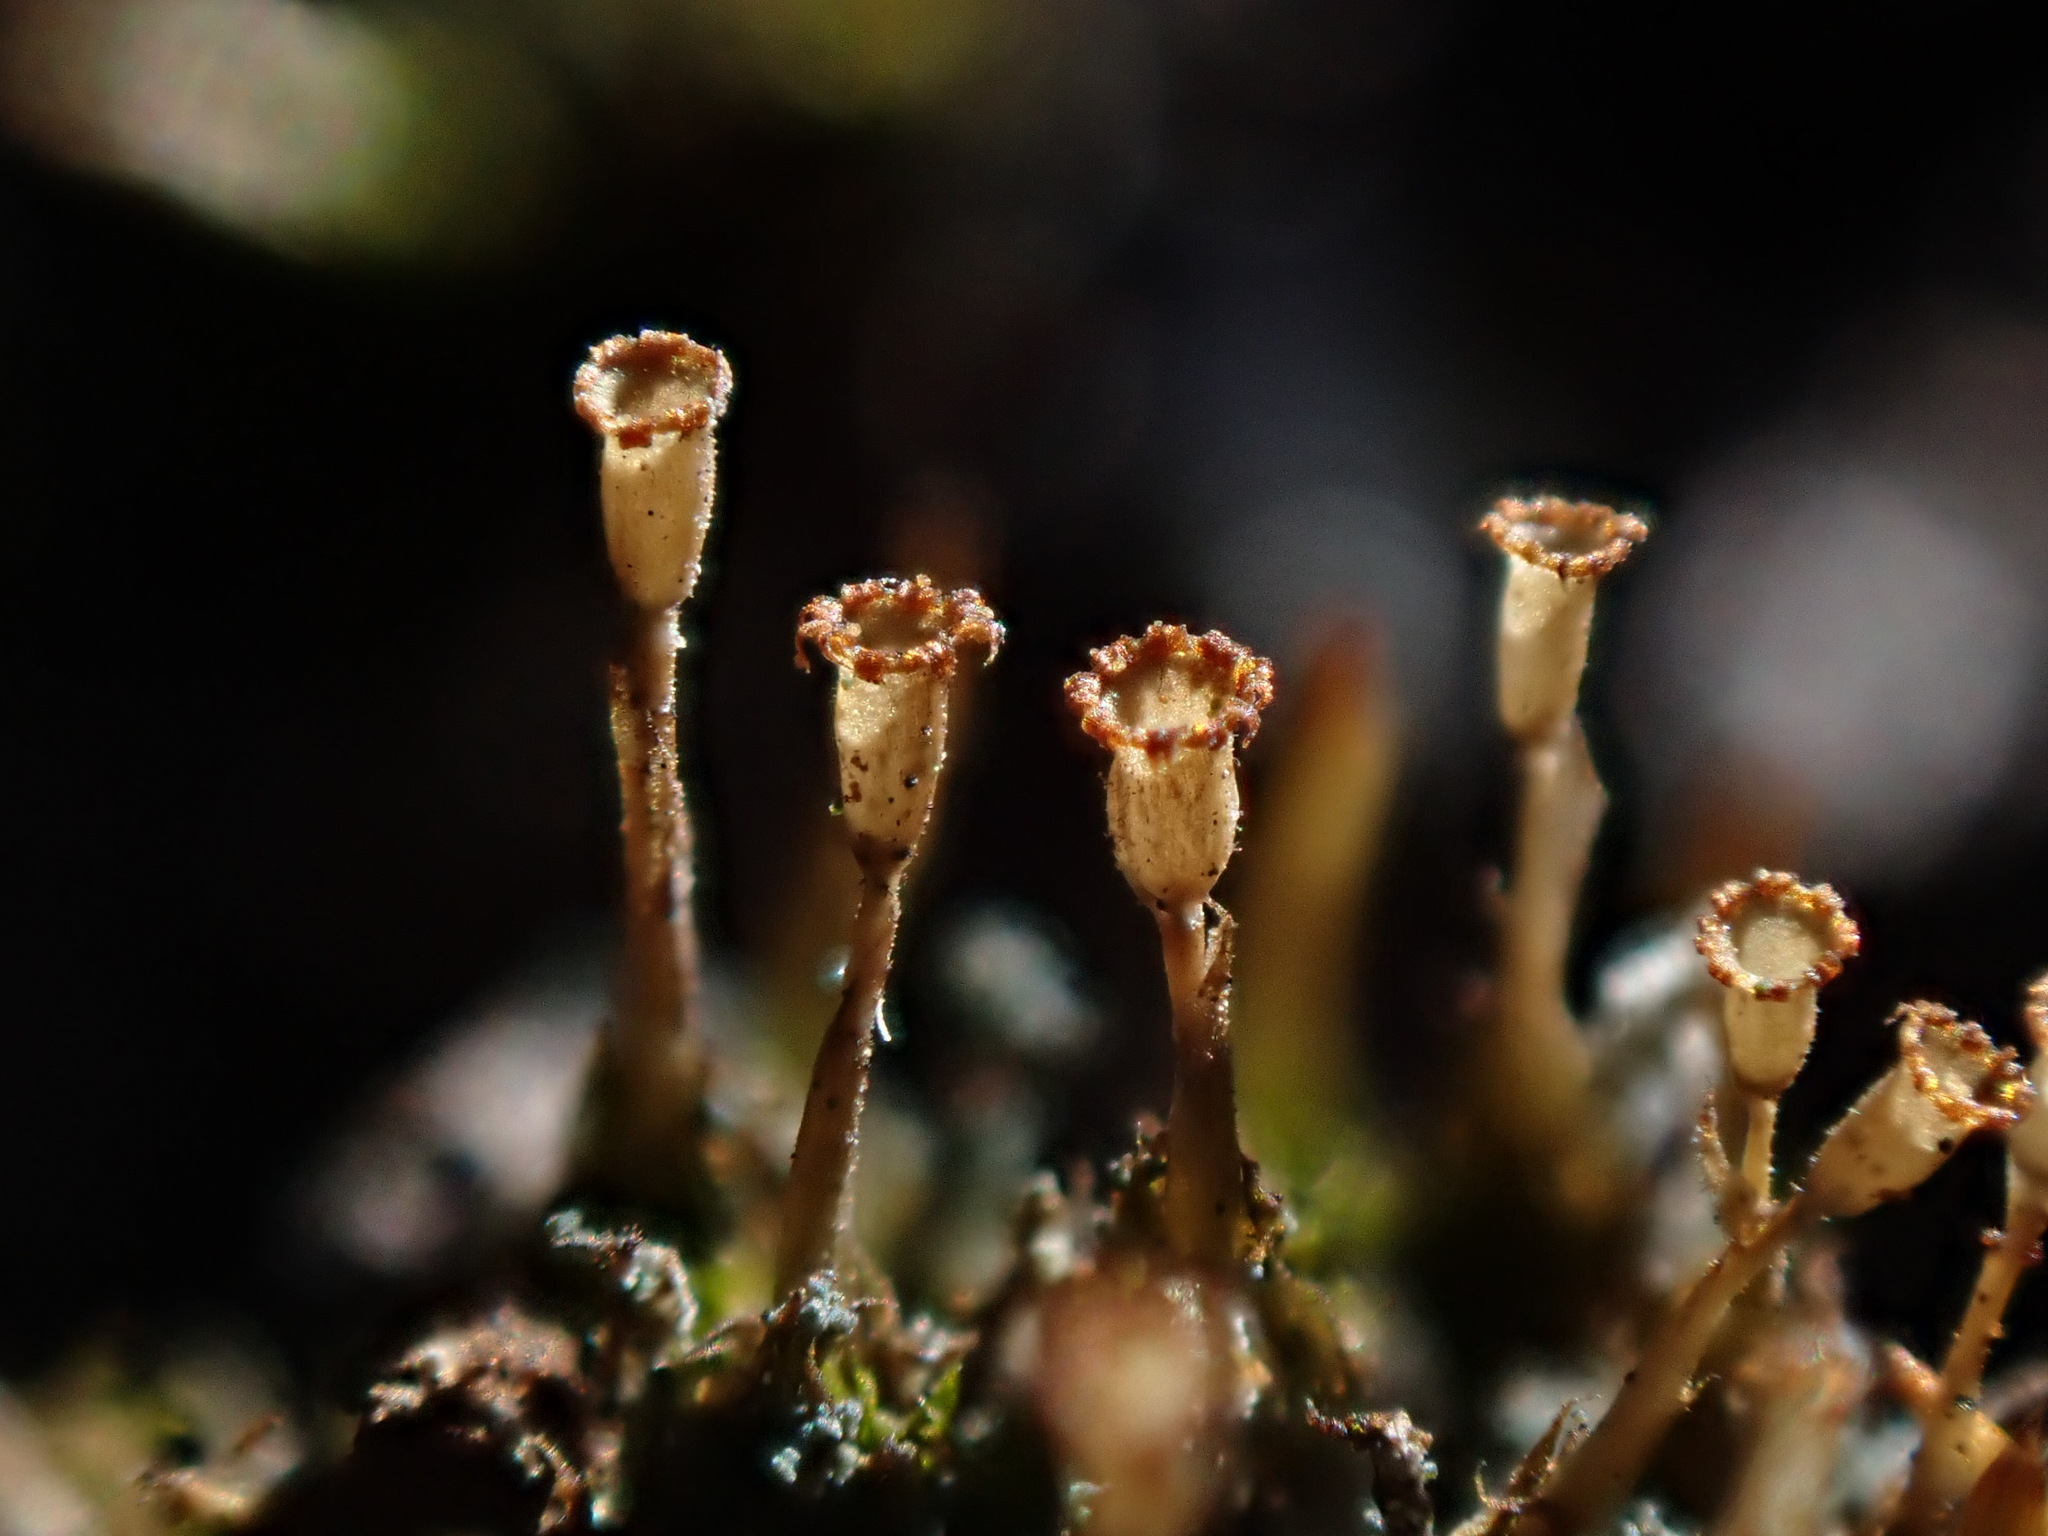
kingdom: Plantae
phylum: Bryophyta
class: Bryopsida
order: Dicranales
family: Rhabdoweisiaceae
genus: Glyphomitrium
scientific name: Glyphomitrium humillimum
